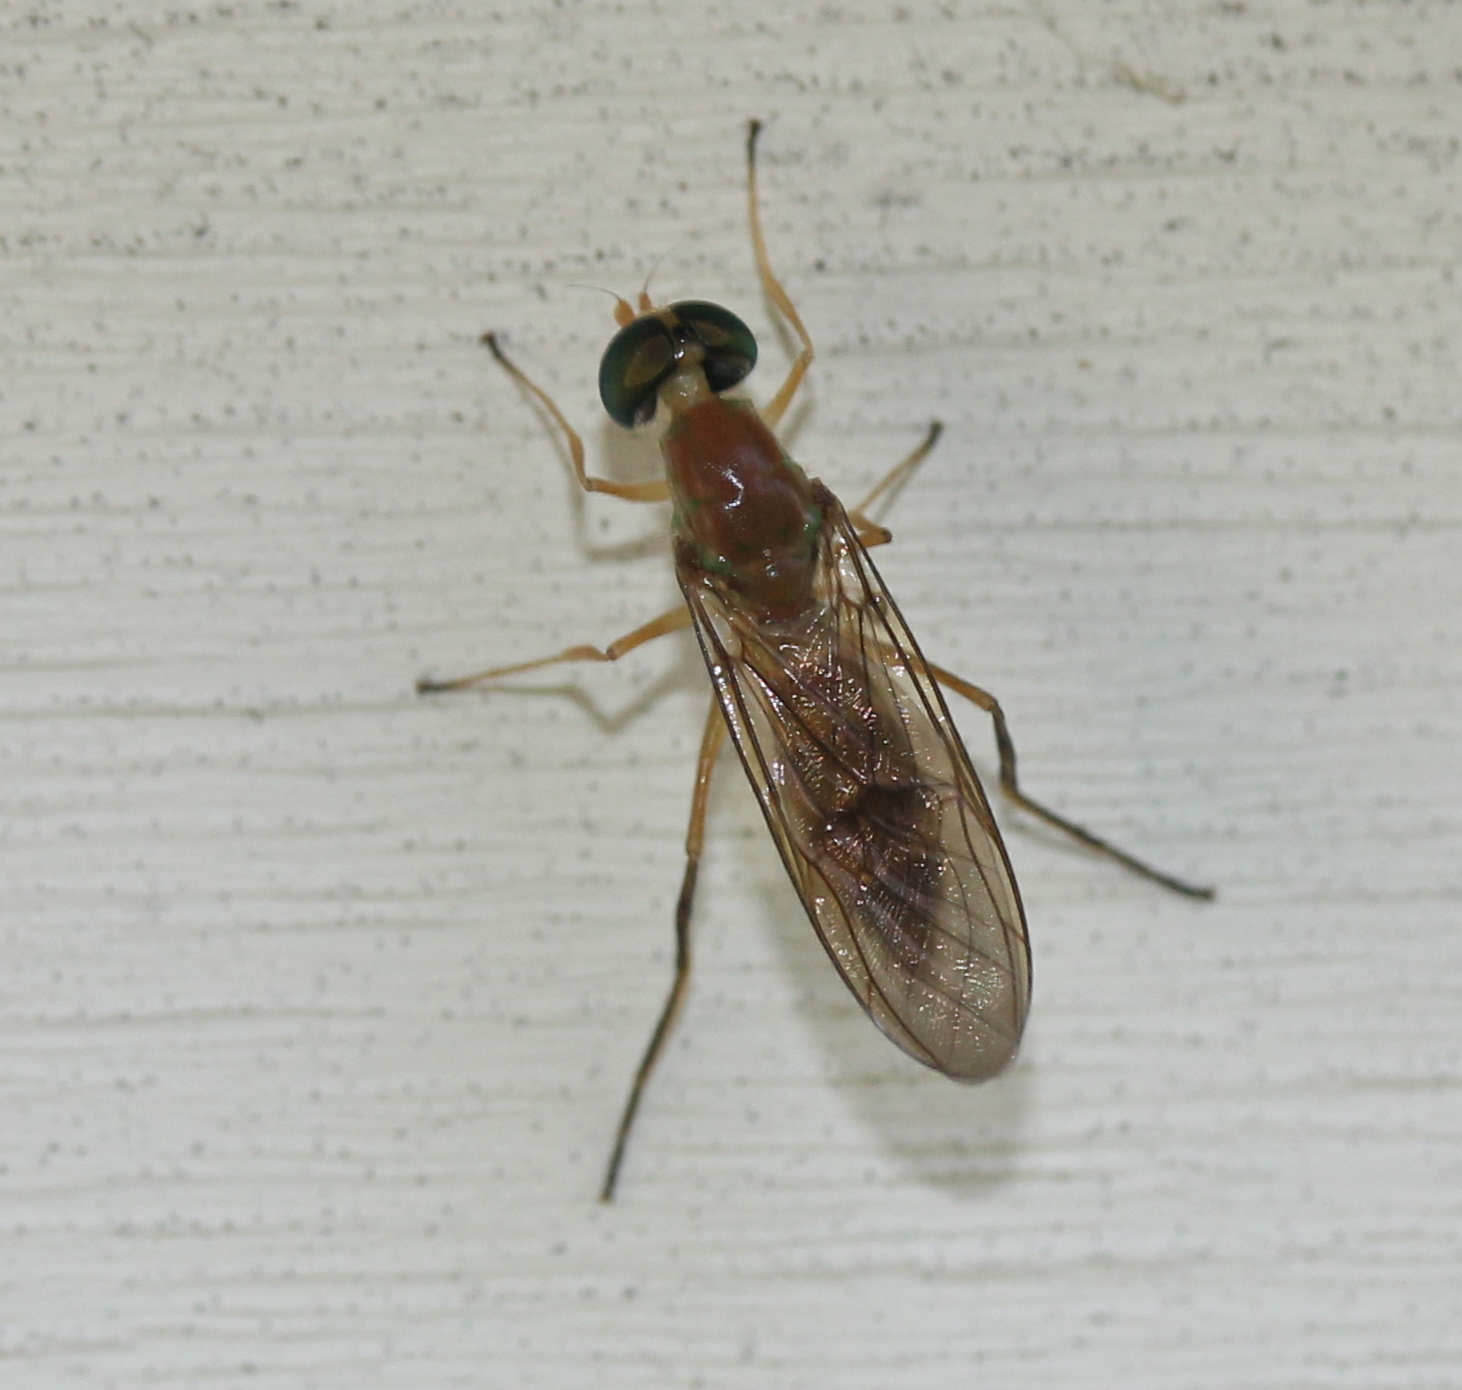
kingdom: Animalia
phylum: Arthropoda
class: Insecta
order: Diptera
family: Stratiomyidae
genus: Ptecticus
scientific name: Ptecticus trivittatus
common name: Compost fly
